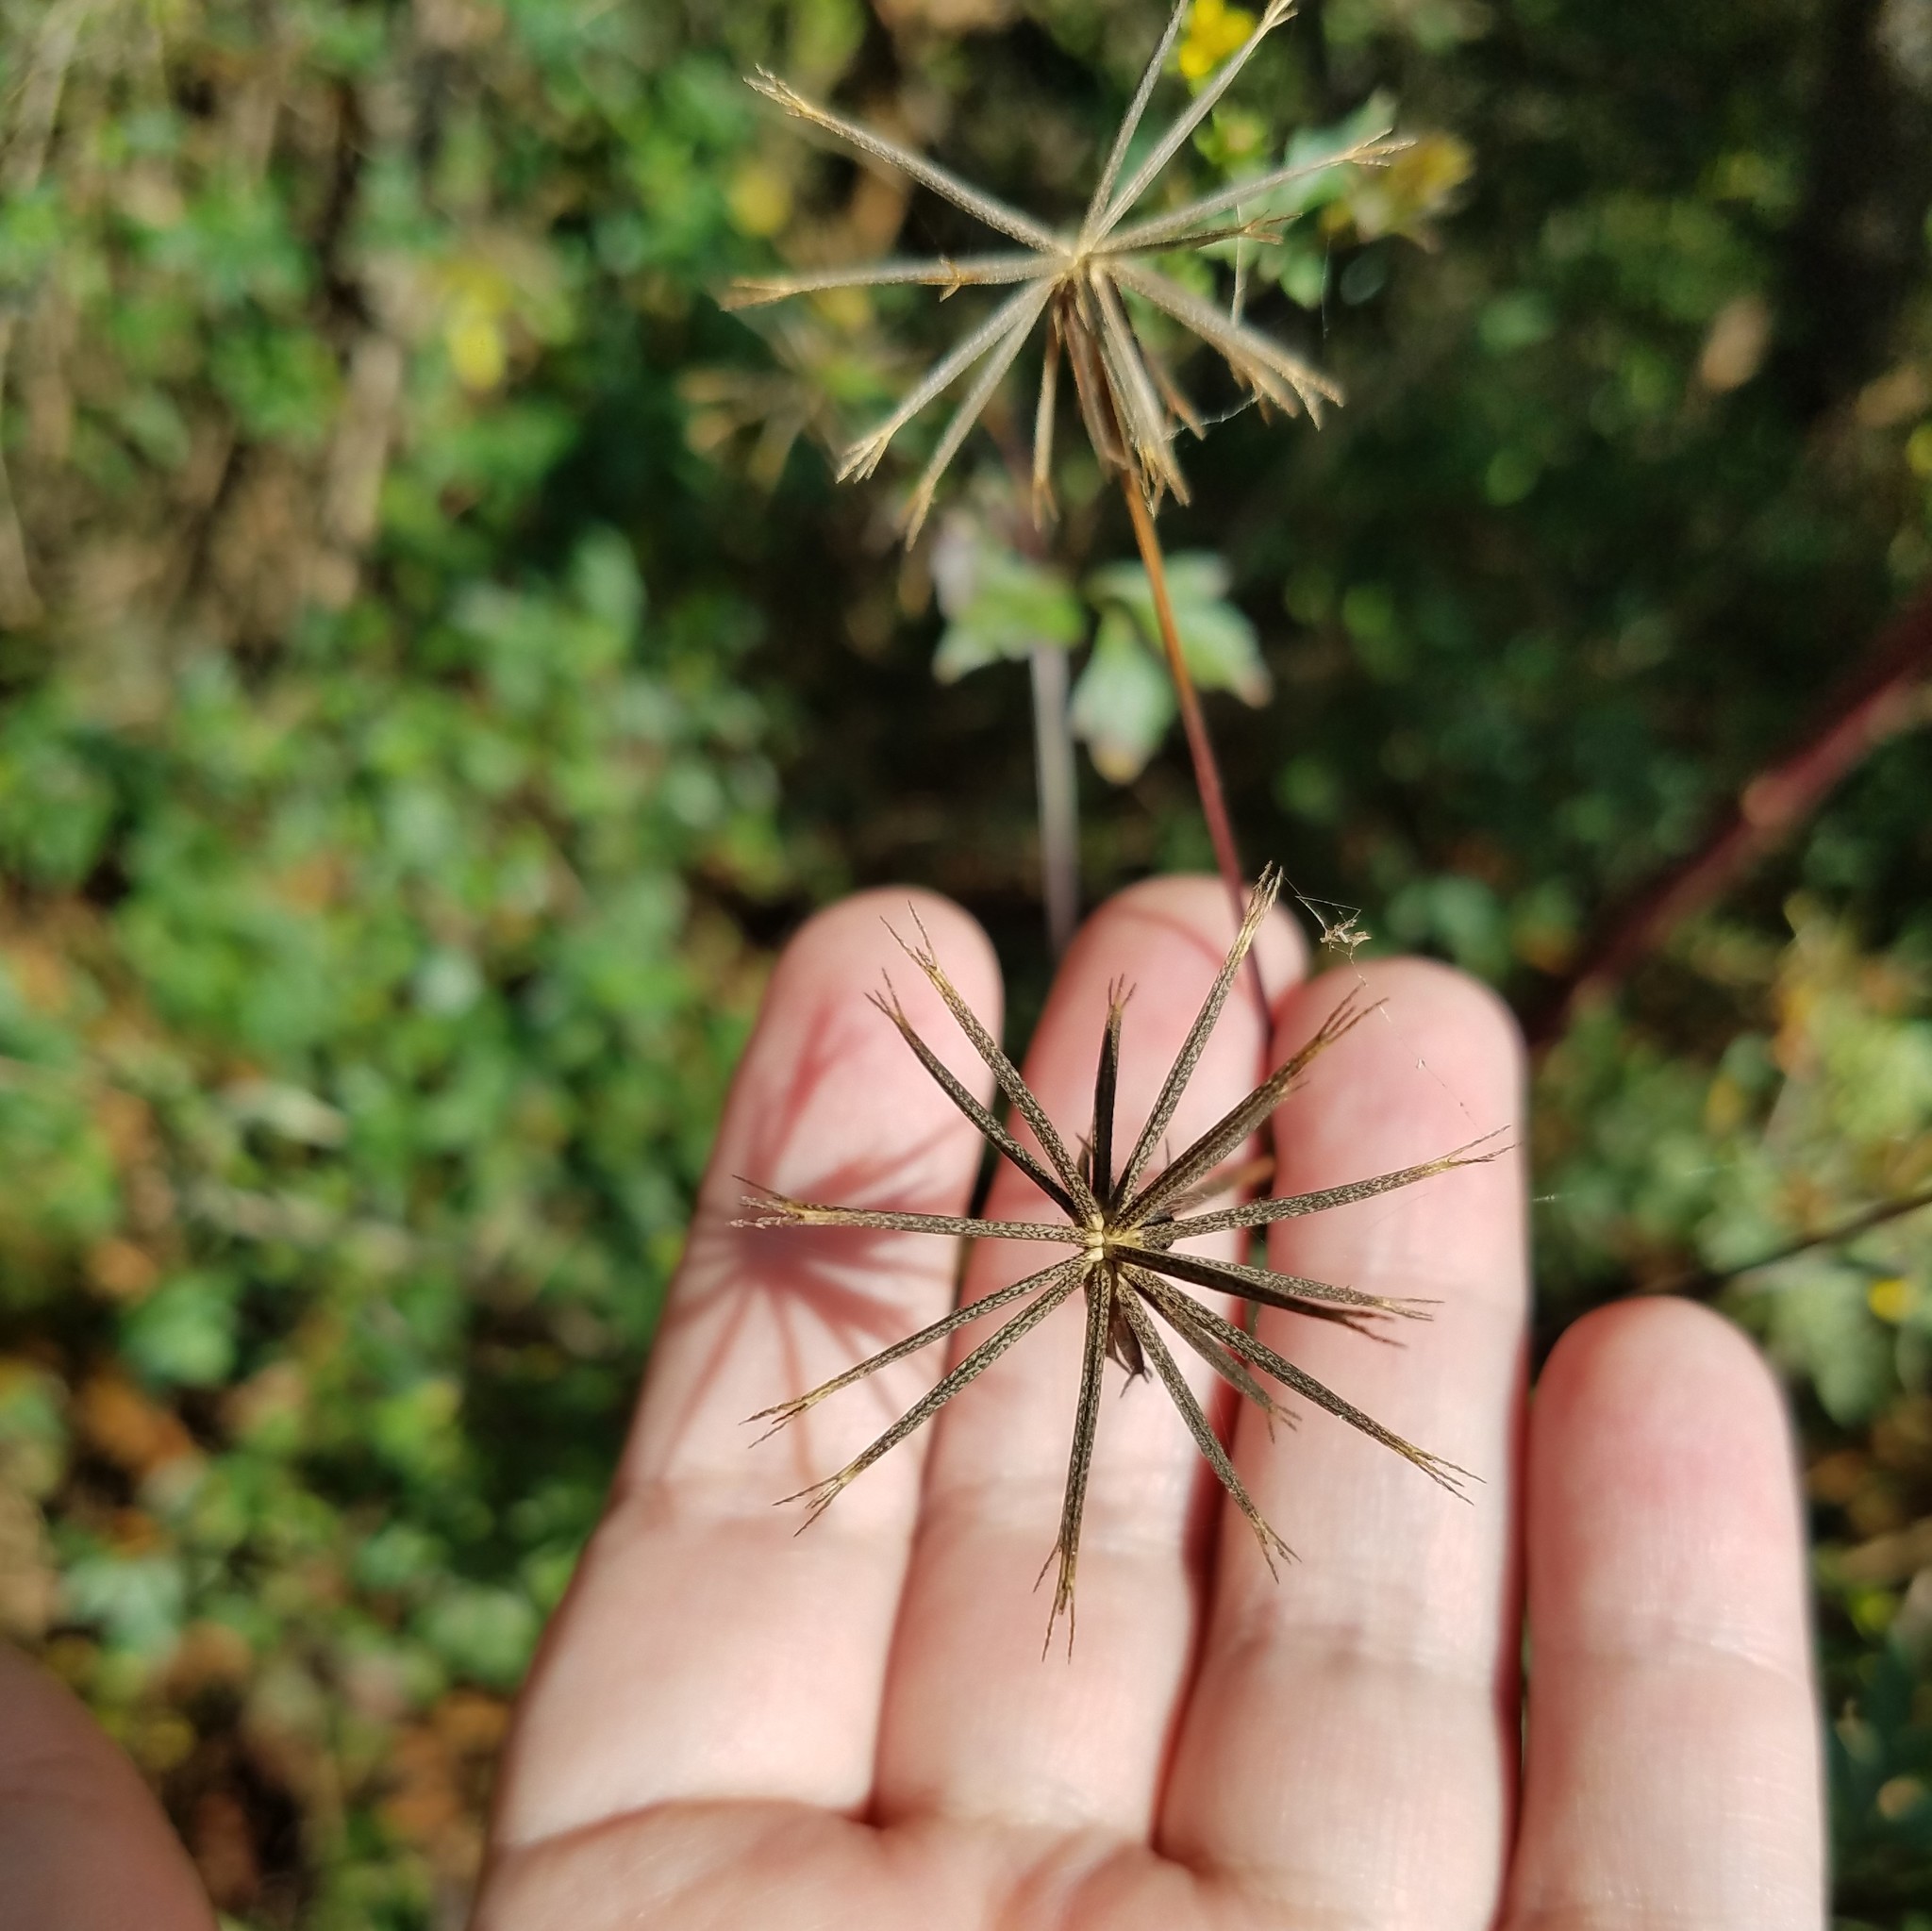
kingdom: Plantae
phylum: Tracheophyta
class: Magnoliopsida
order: Asterales
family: Asteraceae
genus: Bidens
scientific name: Bidens bipinnata
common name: Spanish-needles
